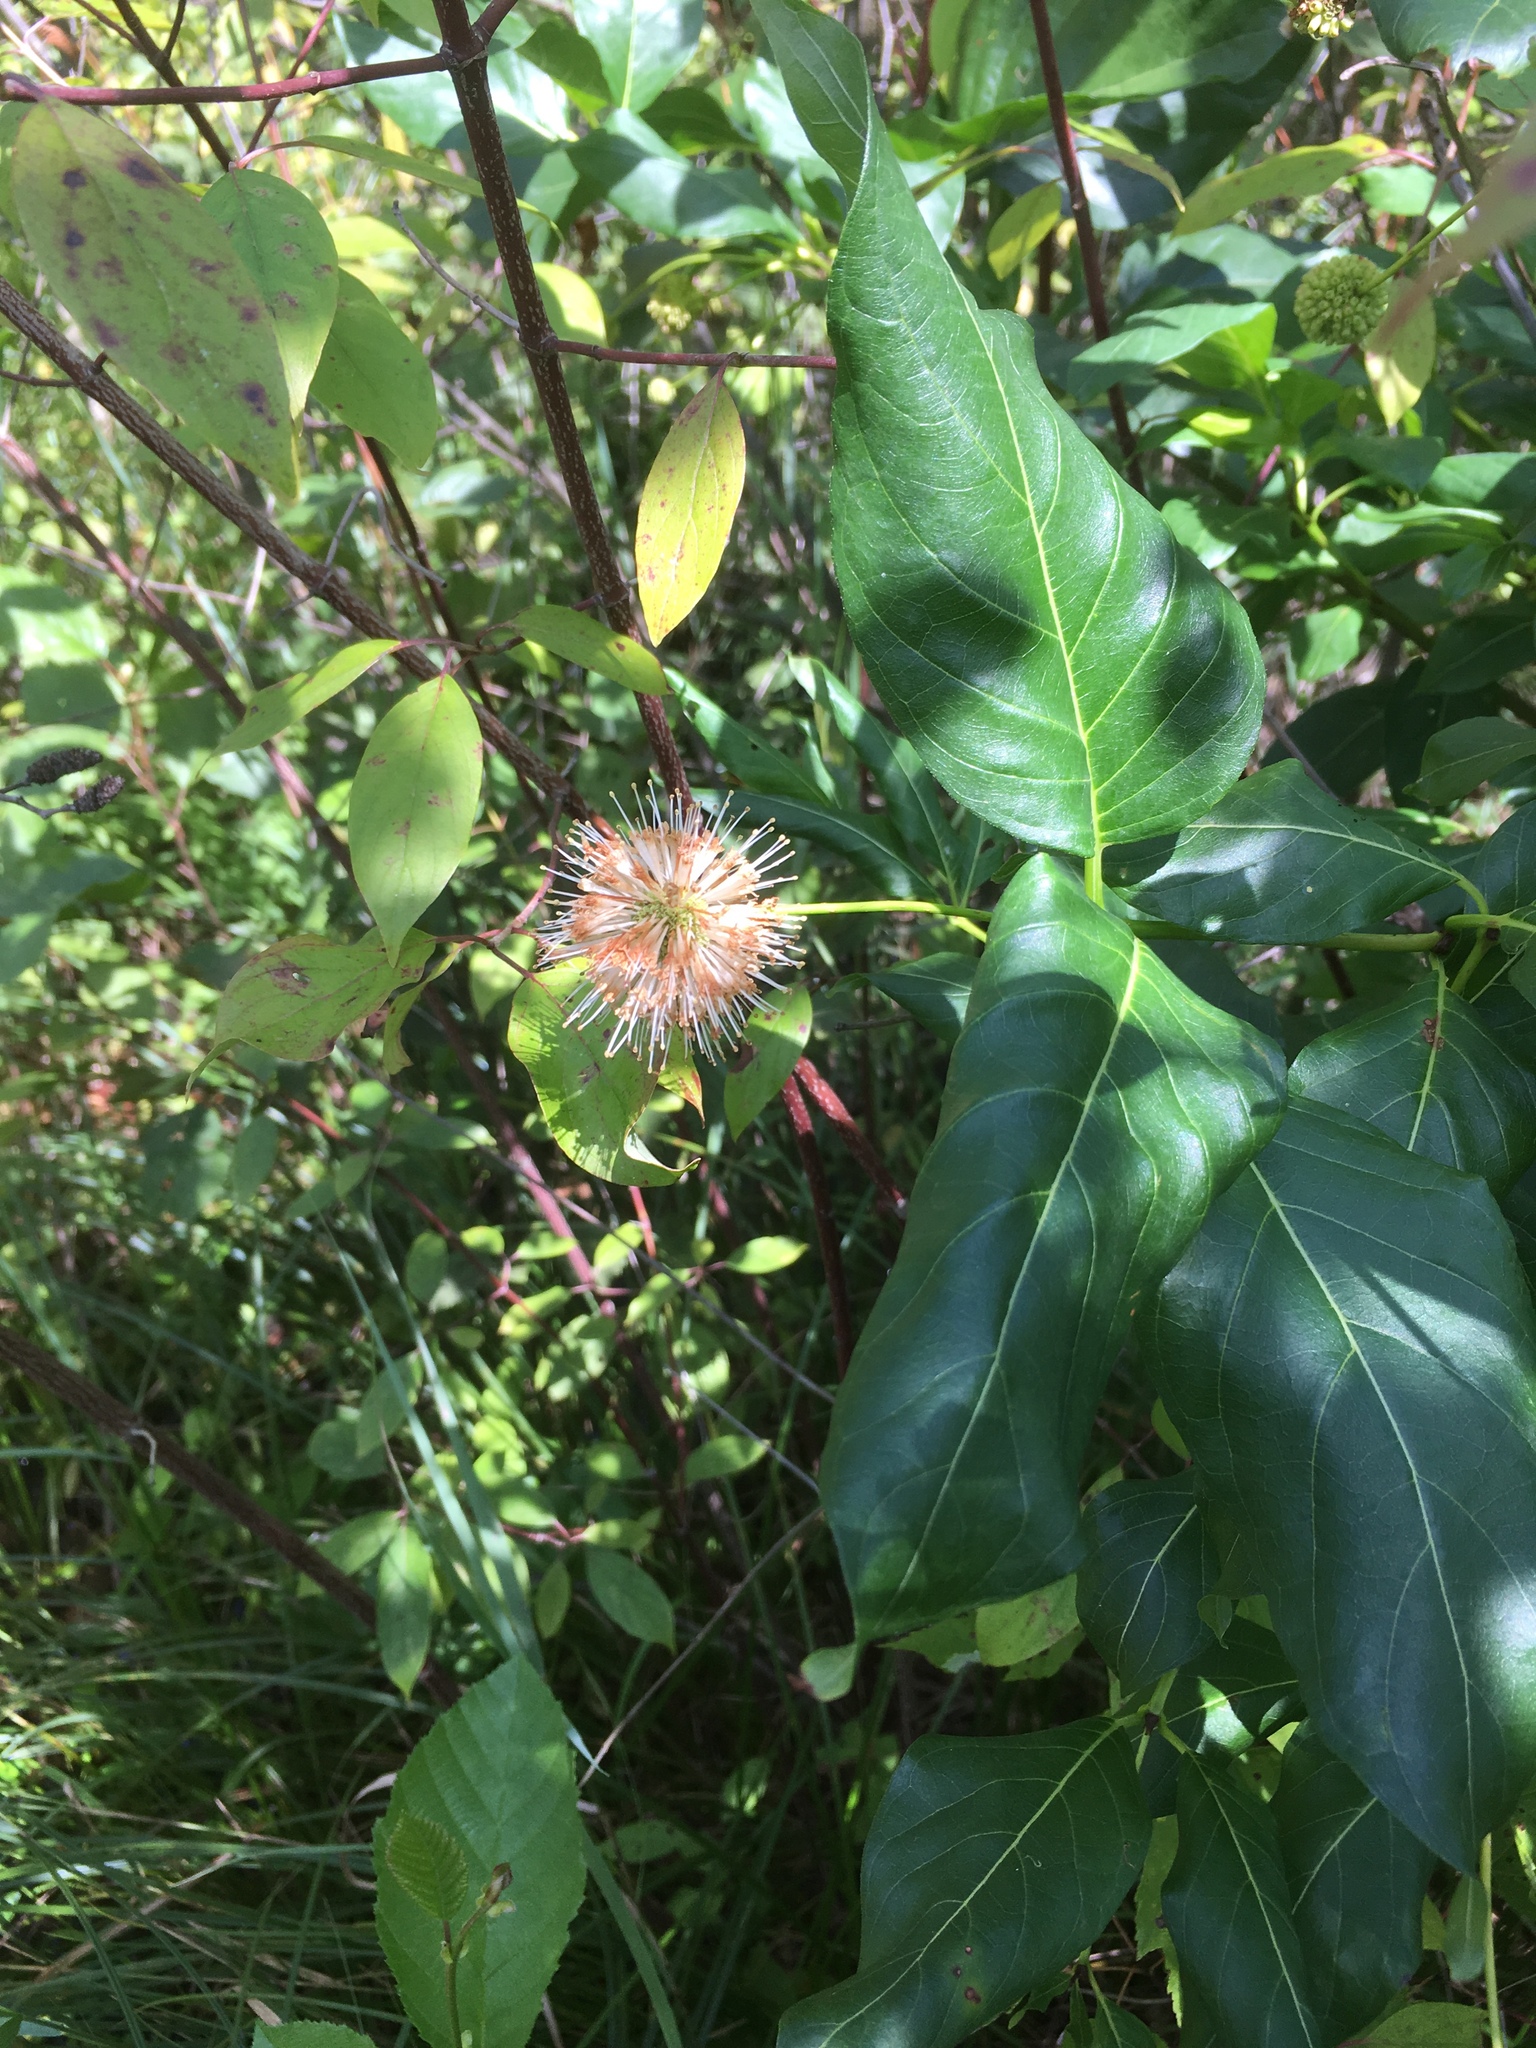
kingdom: Plantae
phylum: Tracheophyta
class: Magnoliopsida
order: Gentianales
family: Rubiaceae
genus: Cephalanthus
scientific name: Cephalanthus occidentalis
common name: Button-willow
